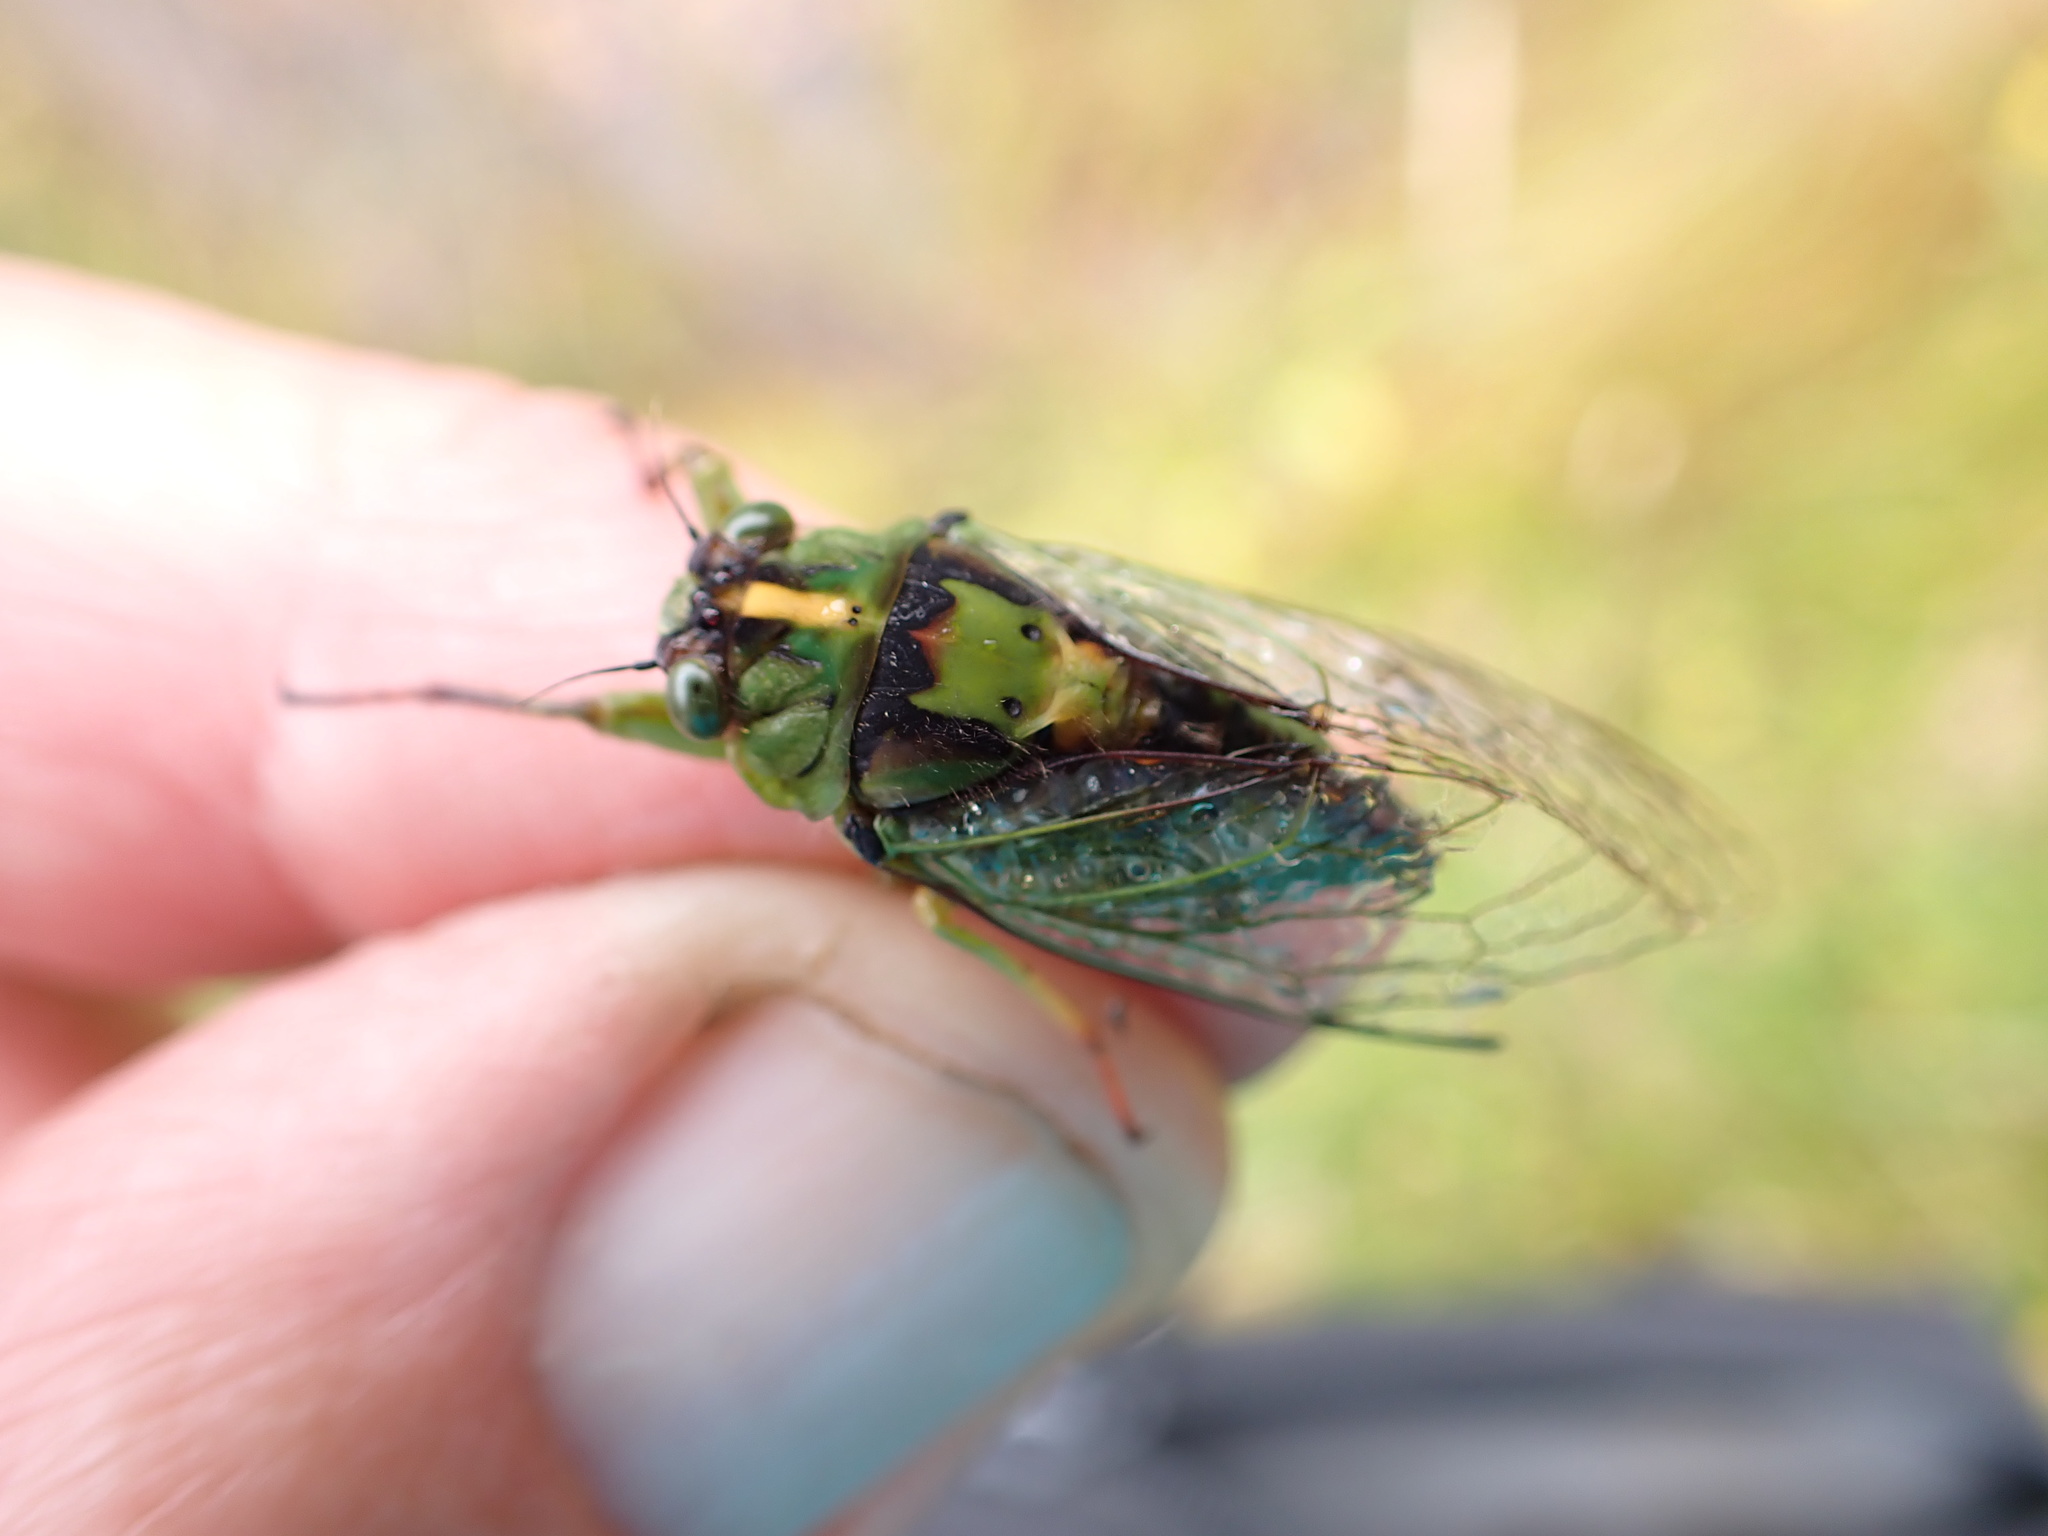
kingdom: Animalia
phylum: Arthropoda
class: Insecta
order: Hemiptera
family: Cicadidae
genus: Kikihia
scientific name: Kikihia subalpina
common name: Chathams cicada
